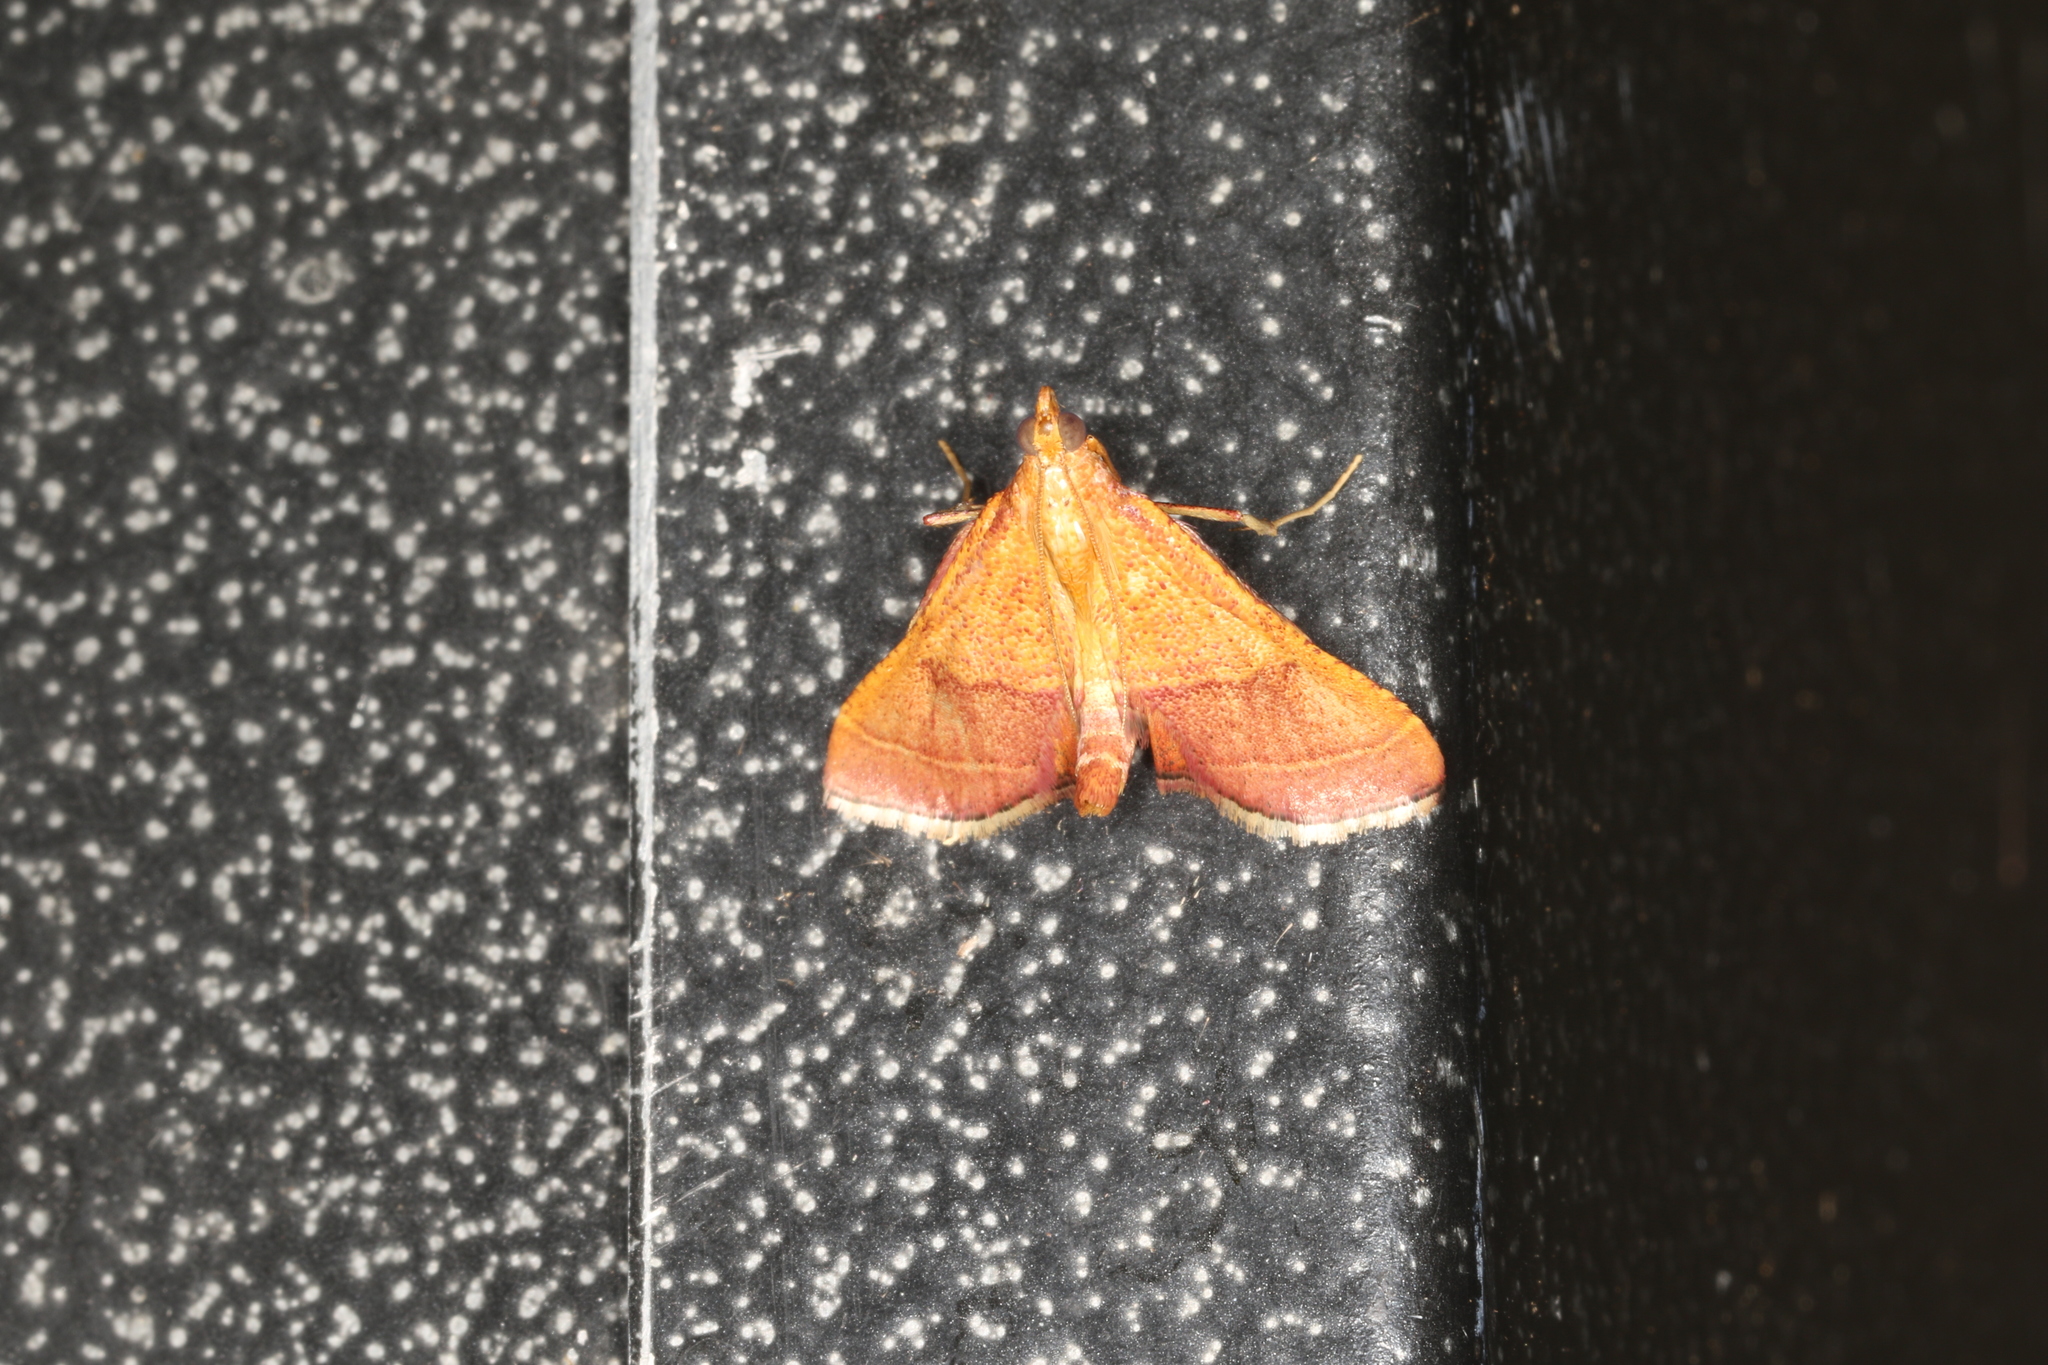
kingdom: Animalia
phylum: Arthropoda
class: Insecta
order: Lepidoptera
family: Pyralidae
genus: Endotricha
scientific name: Endotricha pyrosalis
